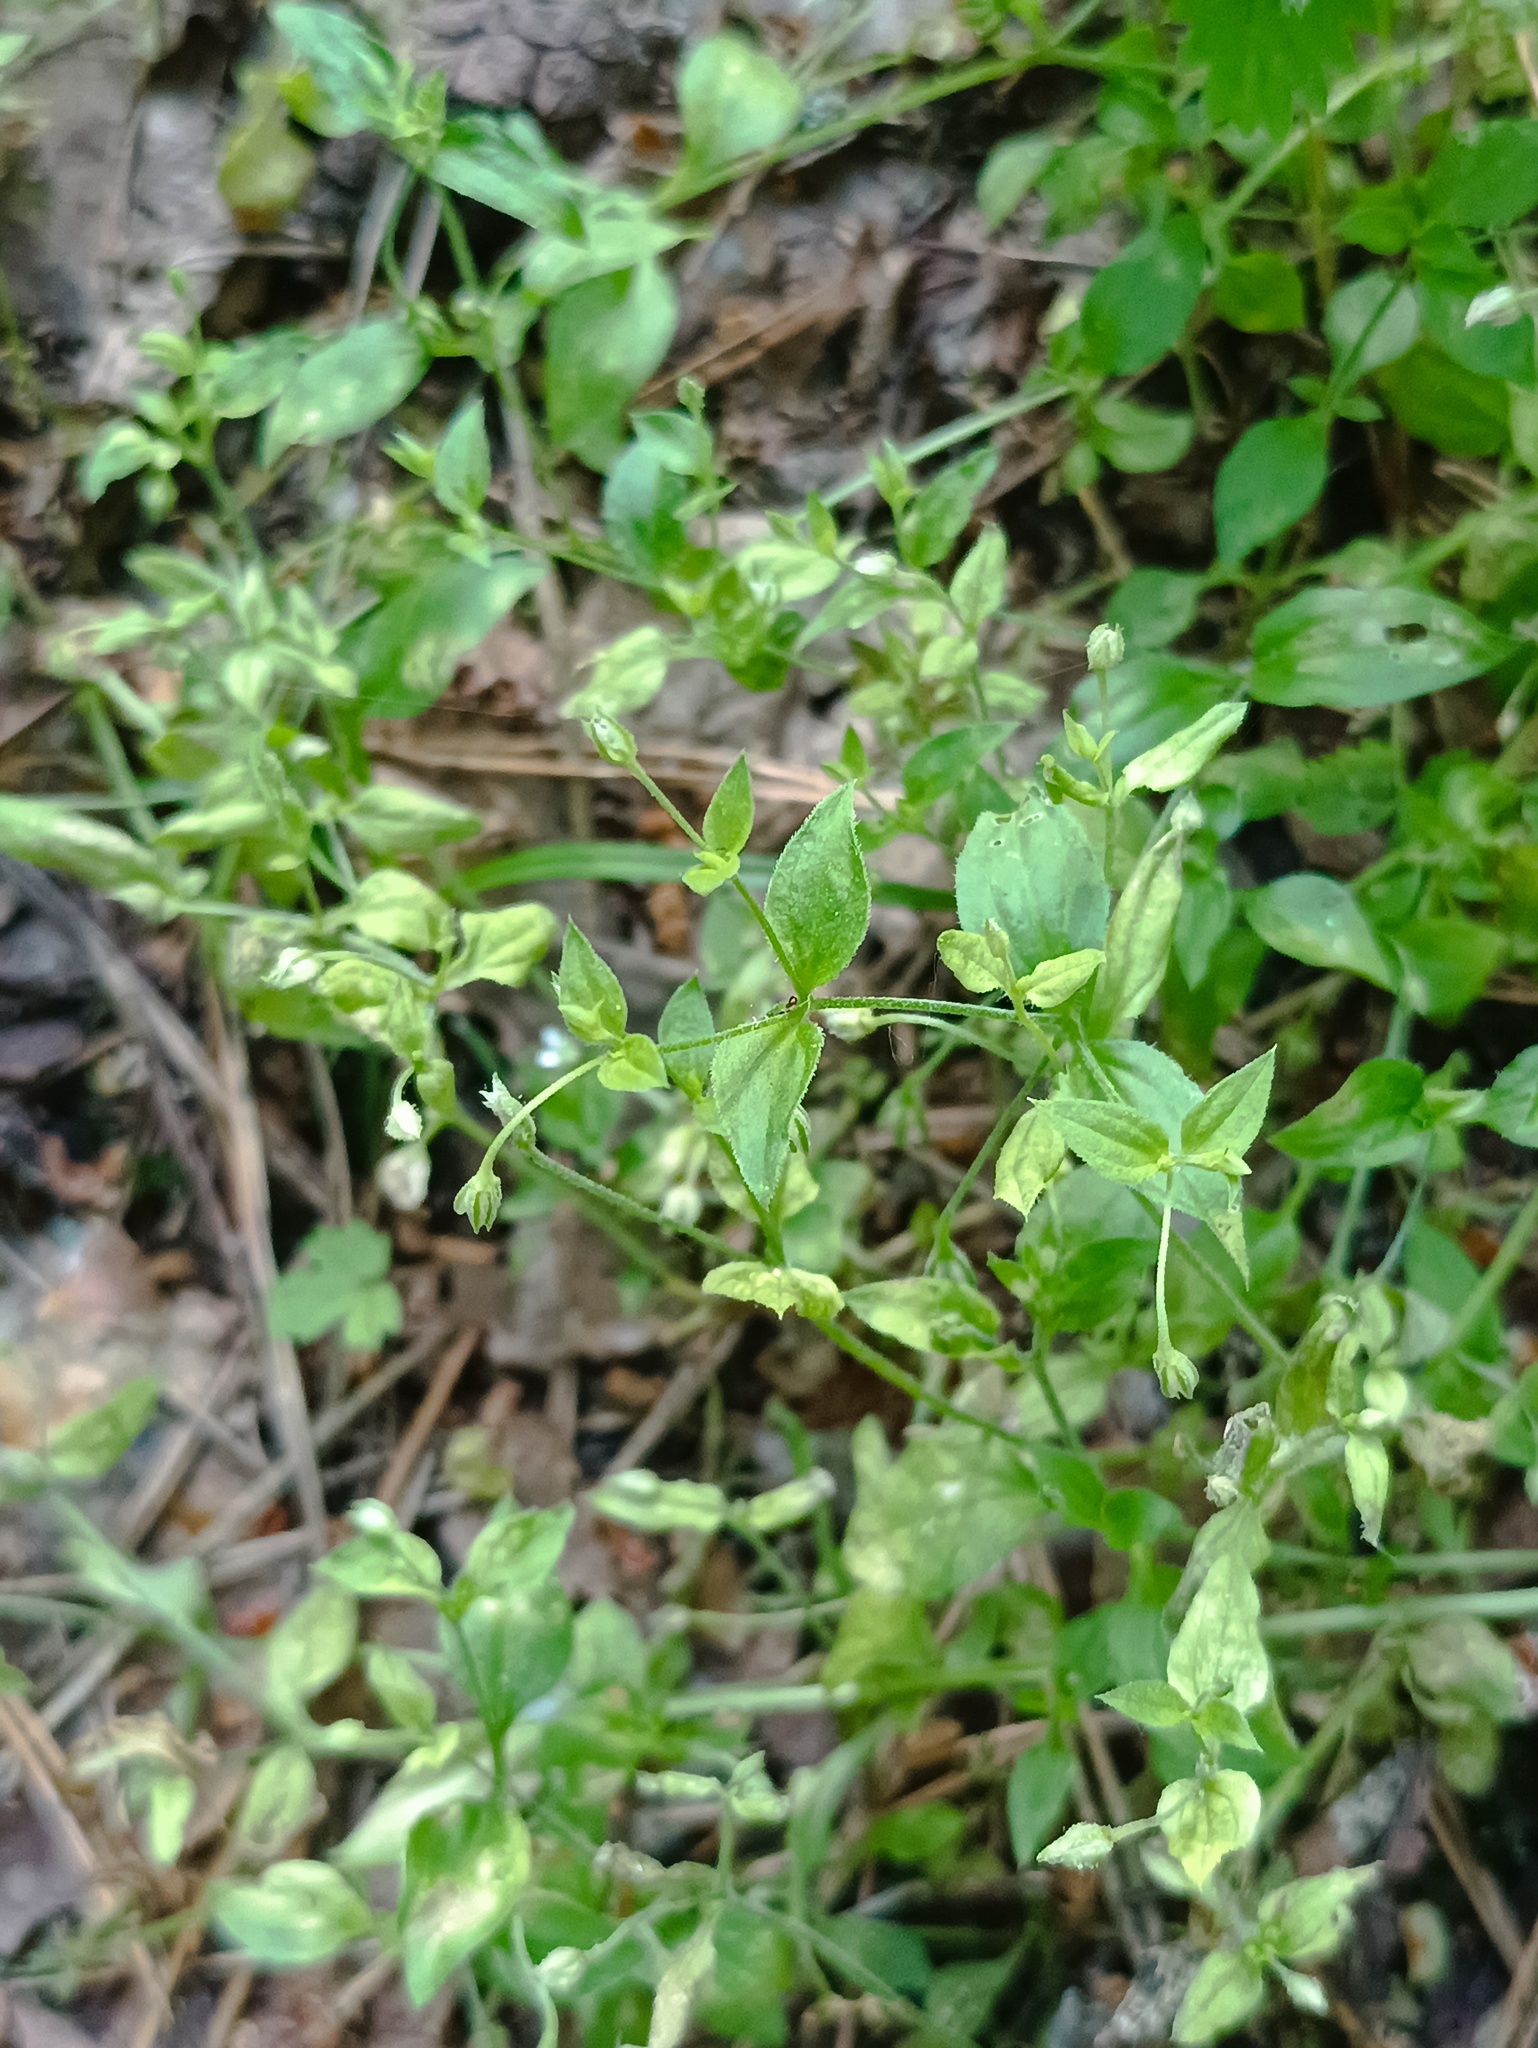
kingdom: Plantae
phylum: Tracheophyta
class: Magnoliopsida
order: Caryophyllales
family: Caryophyllaceae
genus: Moehringia
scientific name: Moehringia trinervia
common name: Three-nerved sandwort
